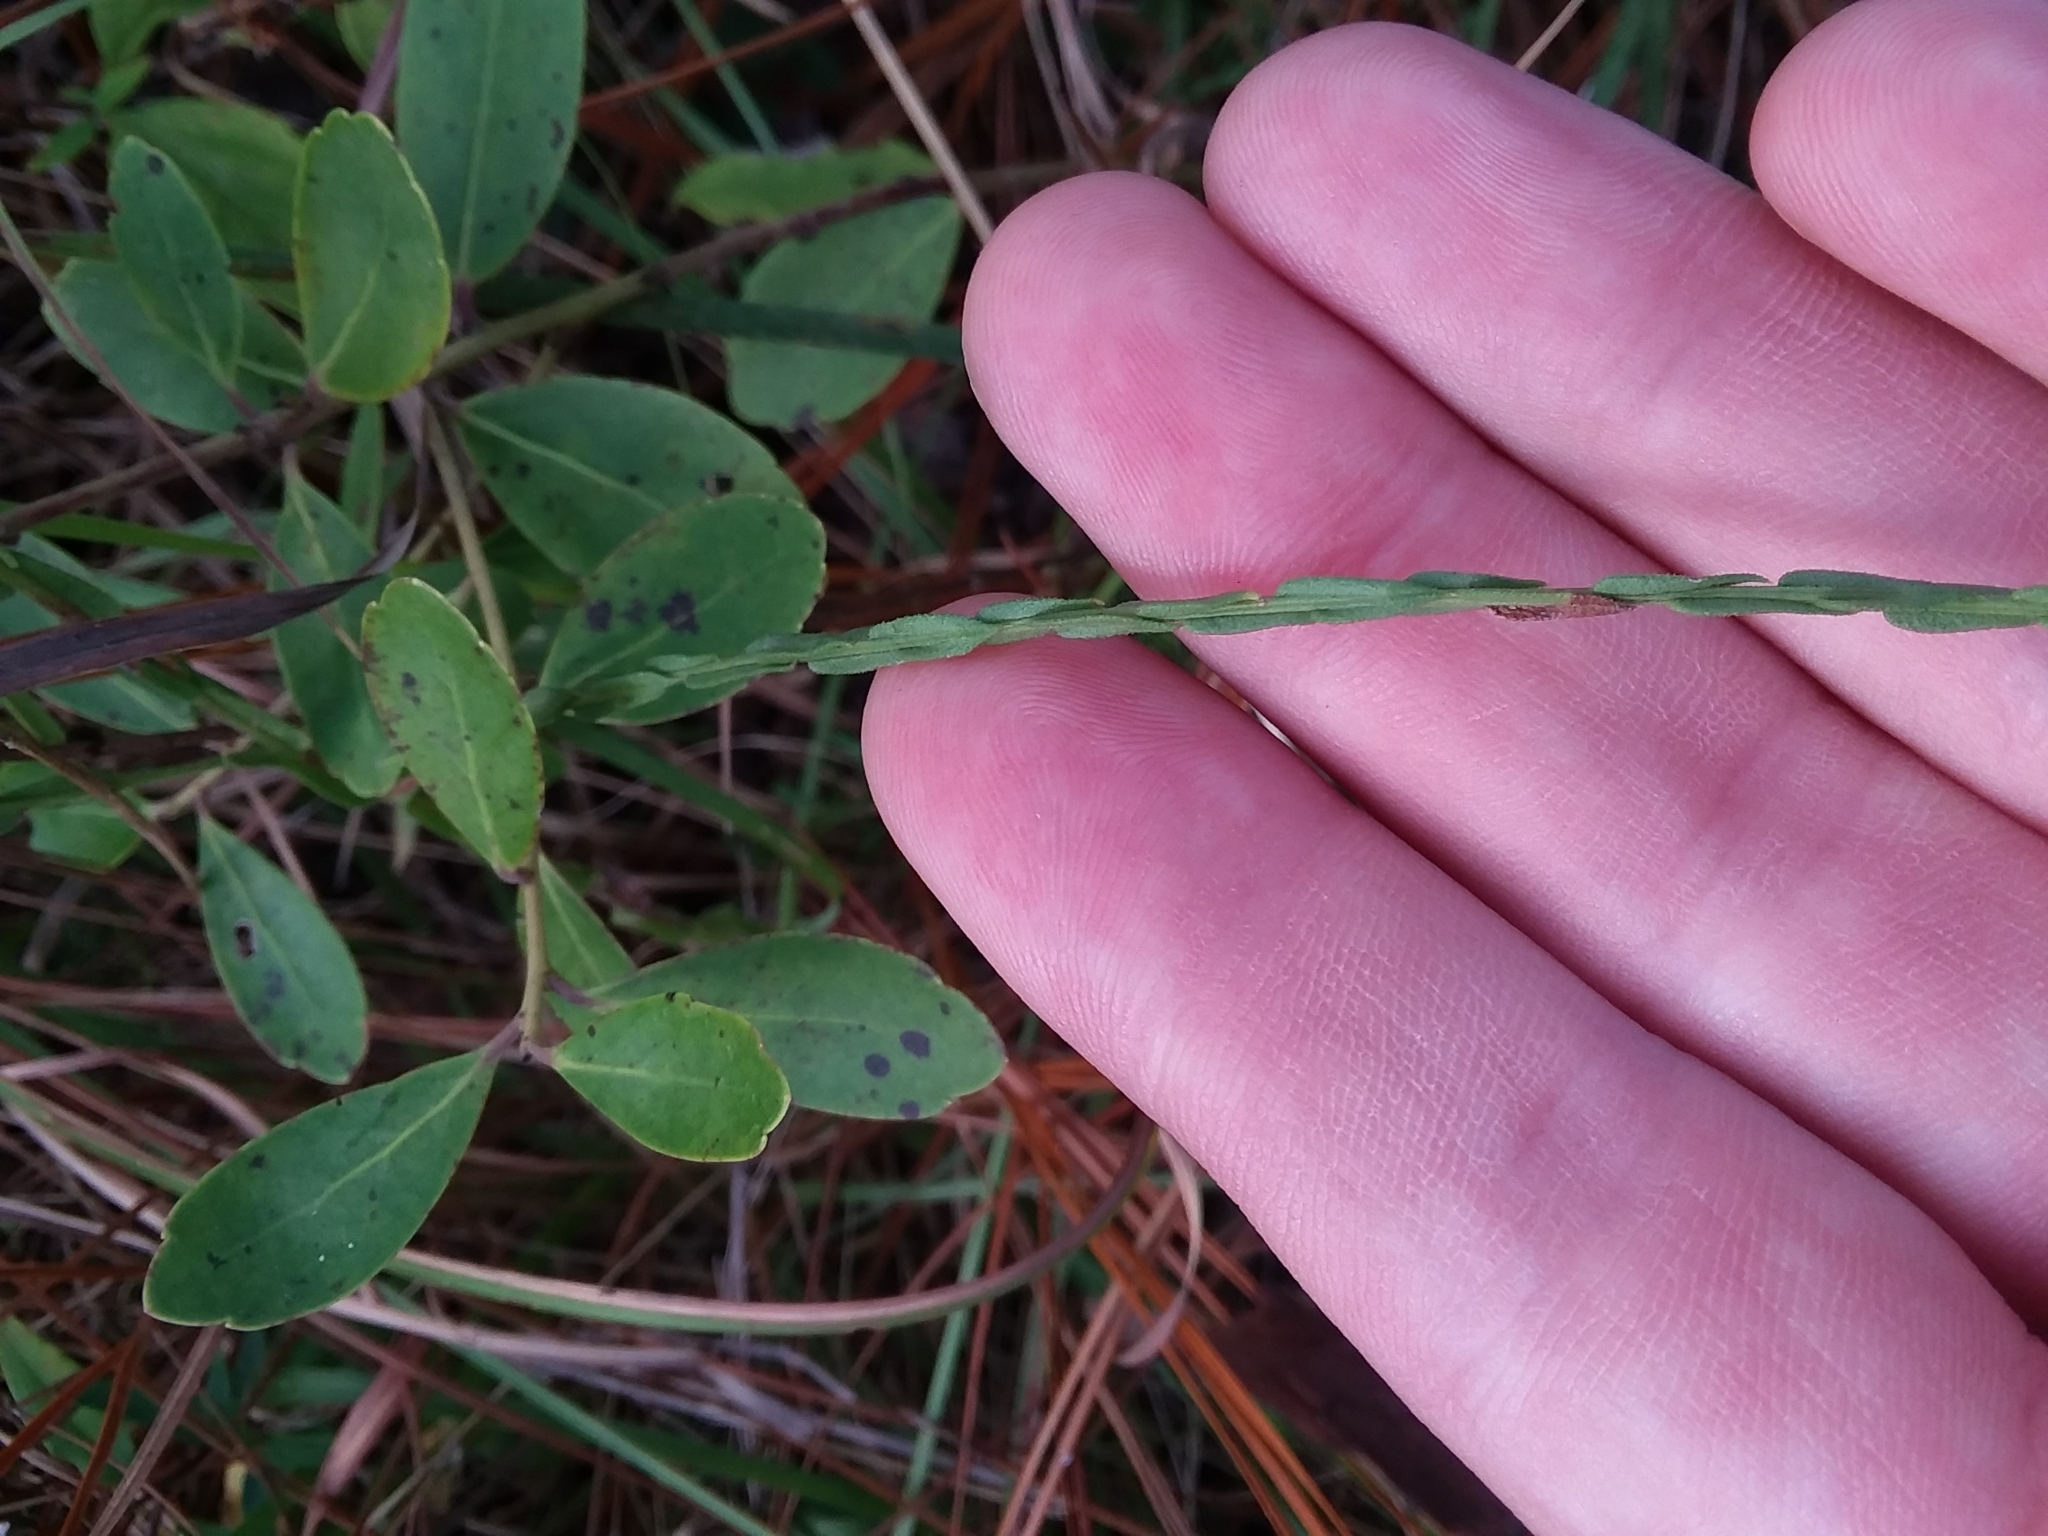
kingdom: Plantae
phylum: Tracheophyta
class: Magnoliopsida
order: Asterales
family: Asteraceae
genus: Symphyotrichum
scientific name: Symphyotrichum adnatum
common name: Scale-leaf aster
